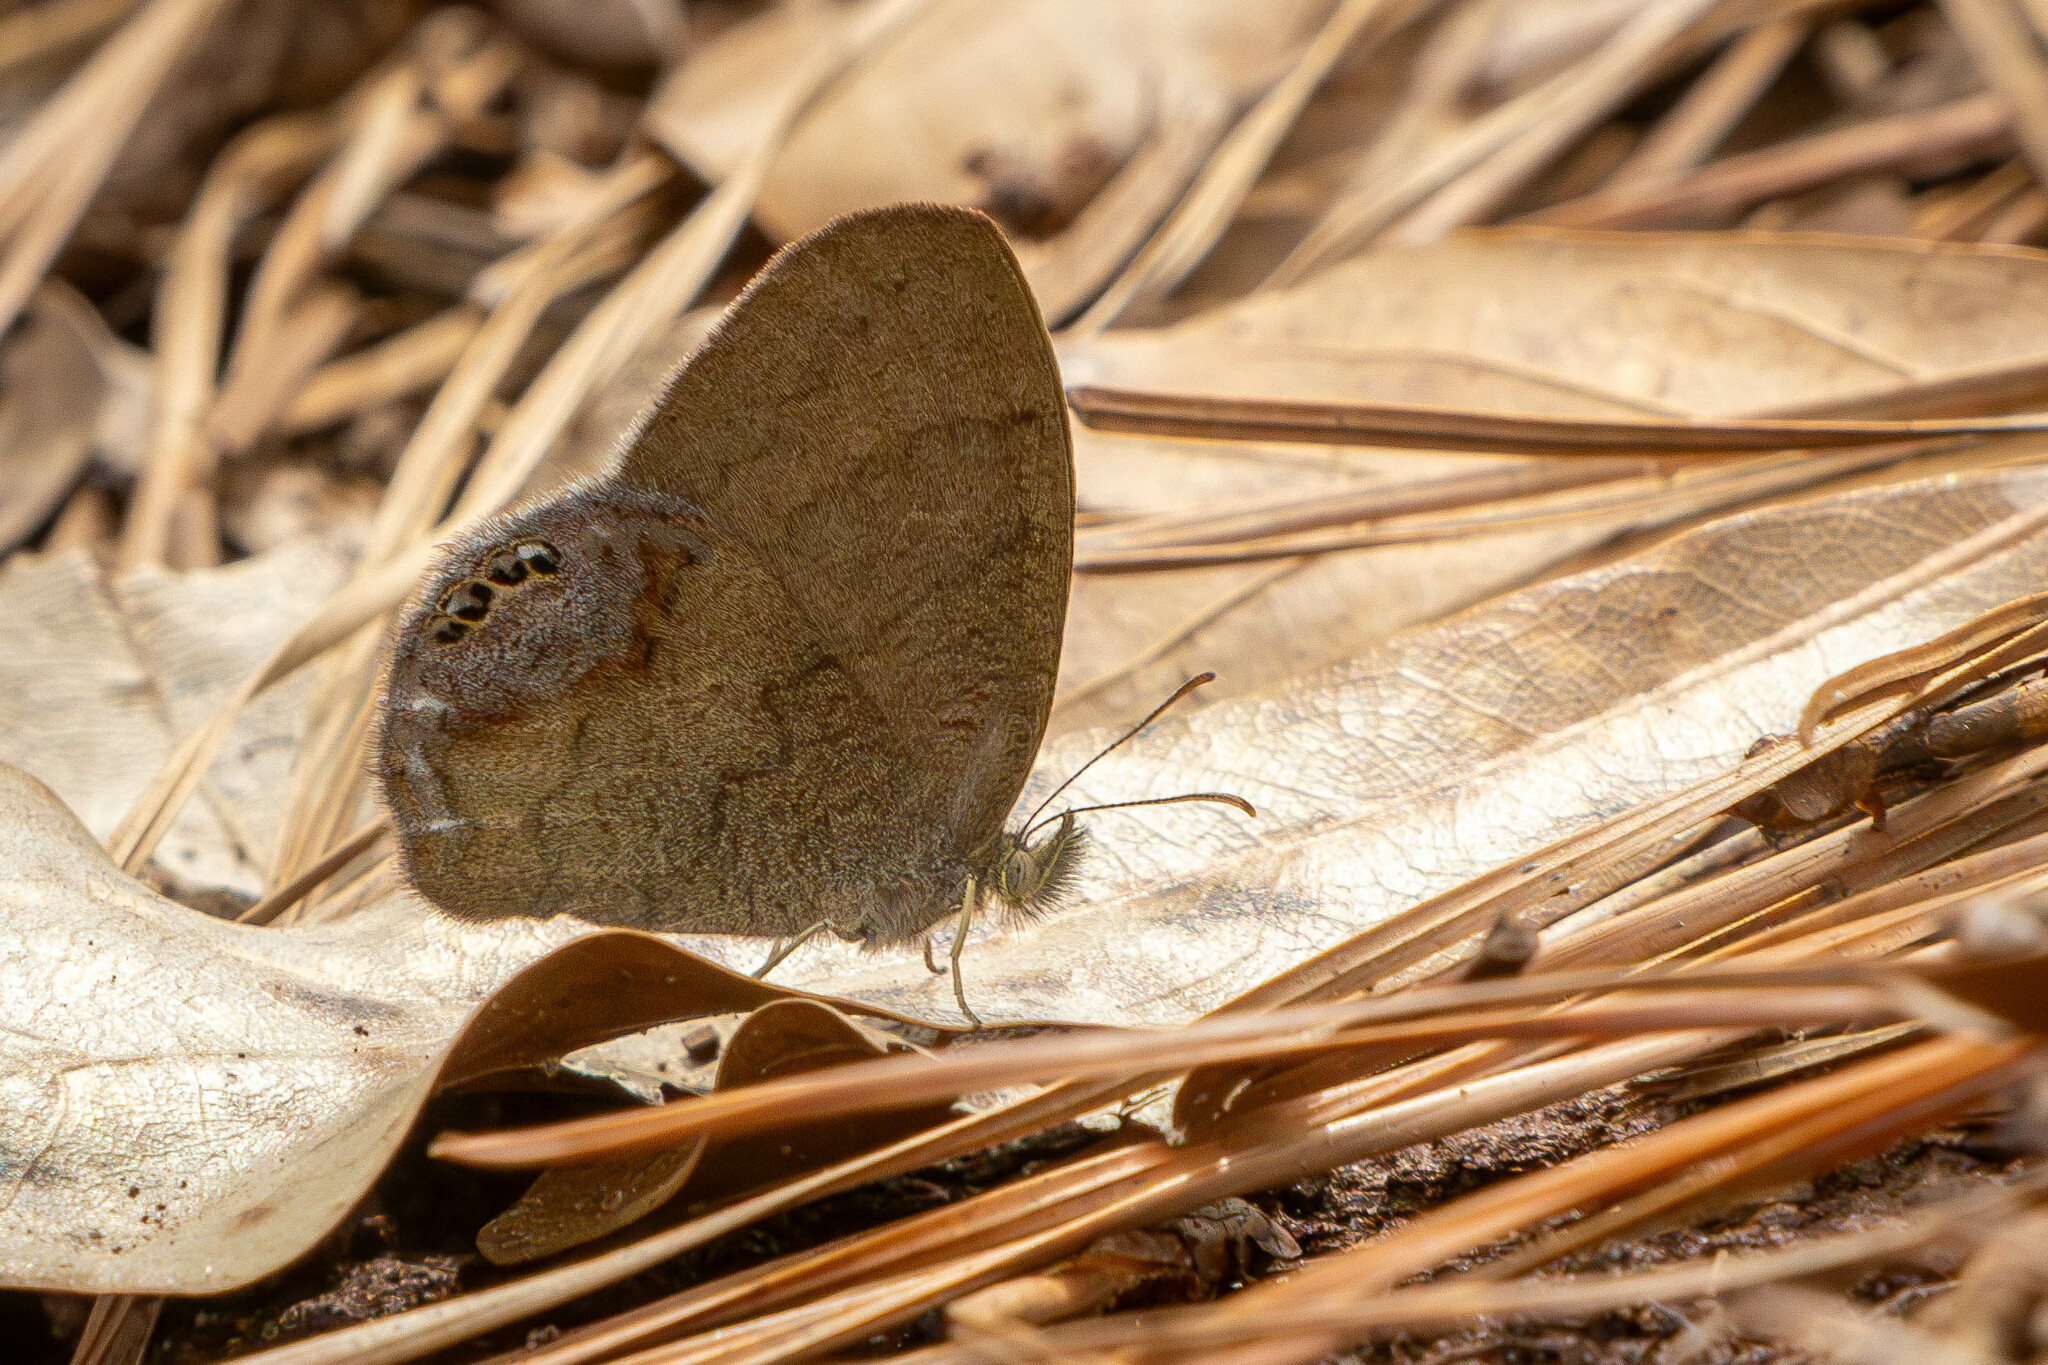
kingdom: Animalia
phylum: Arthropoda
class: Insecta
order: Lepidoptera
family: Nymphalidae
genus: Euptychia
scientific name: Euptychia cornelius
